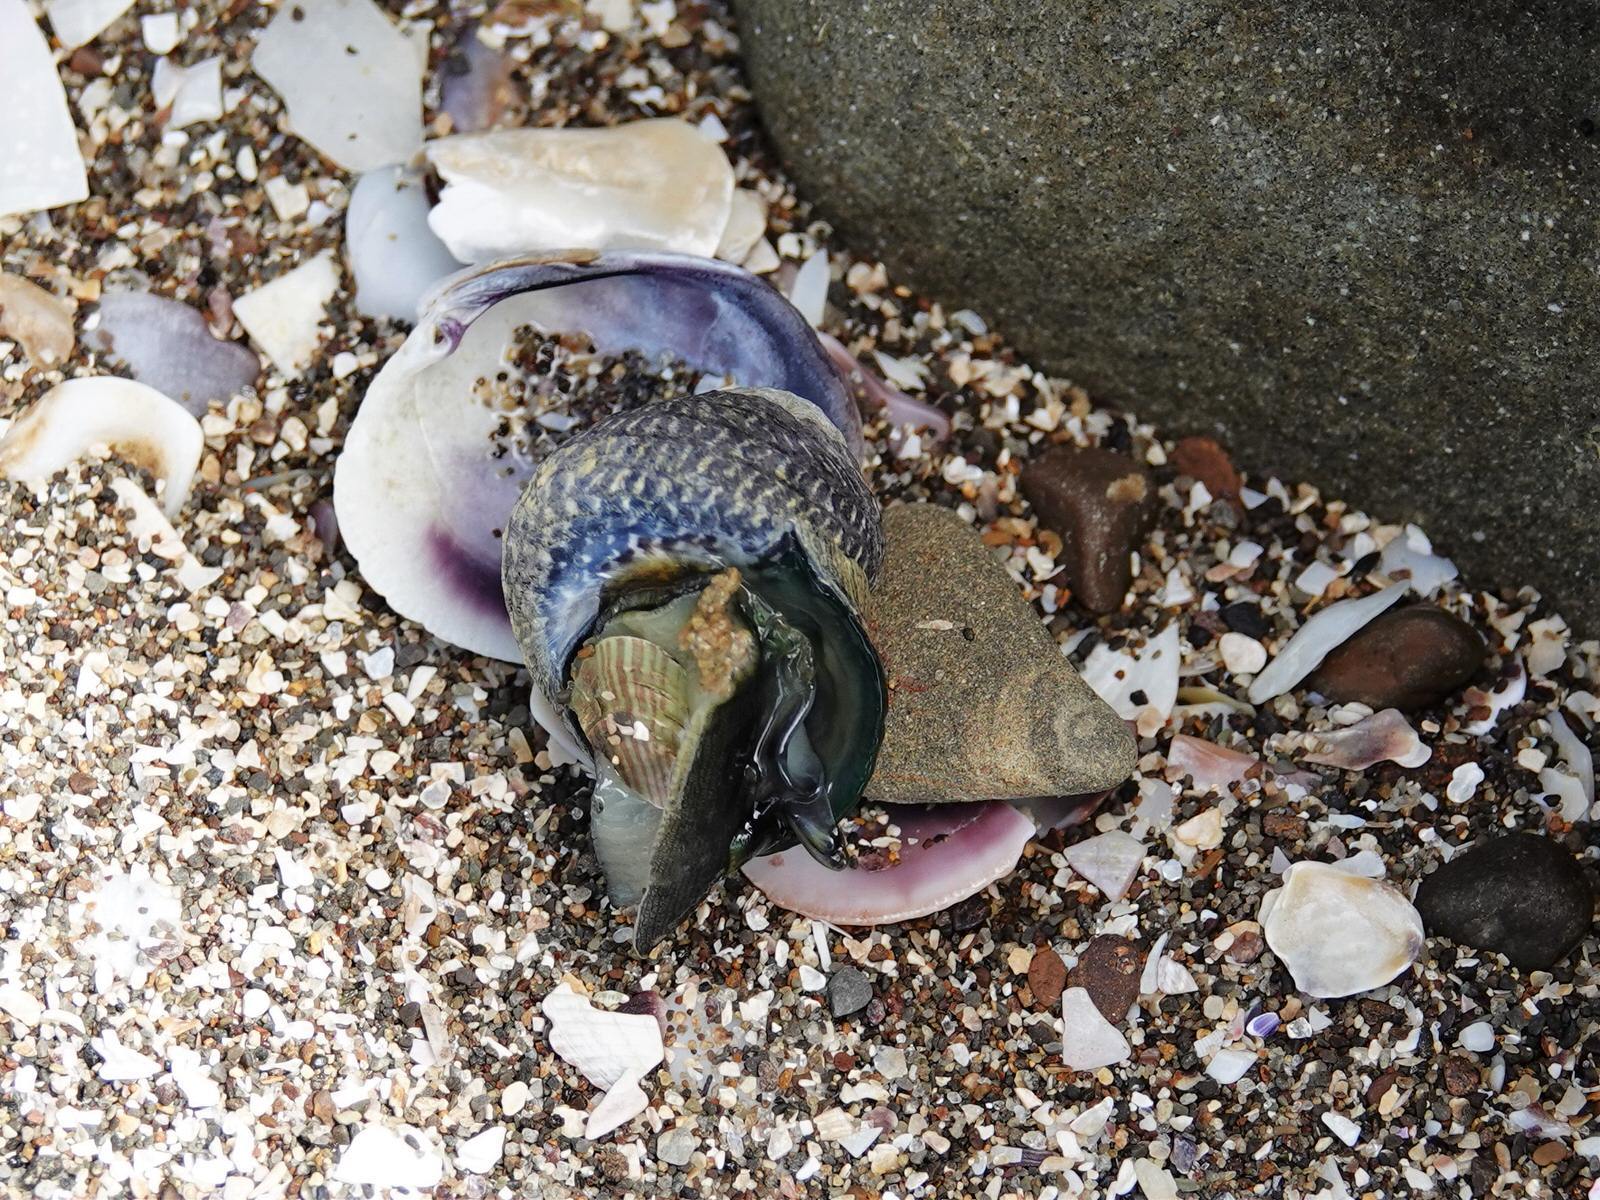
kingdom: Animalia
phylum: Mollusca
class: Gastropoda
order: Trochida
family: Trochidae
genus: Diloma
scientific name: Diloma aethiops
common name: Scorched monodont
